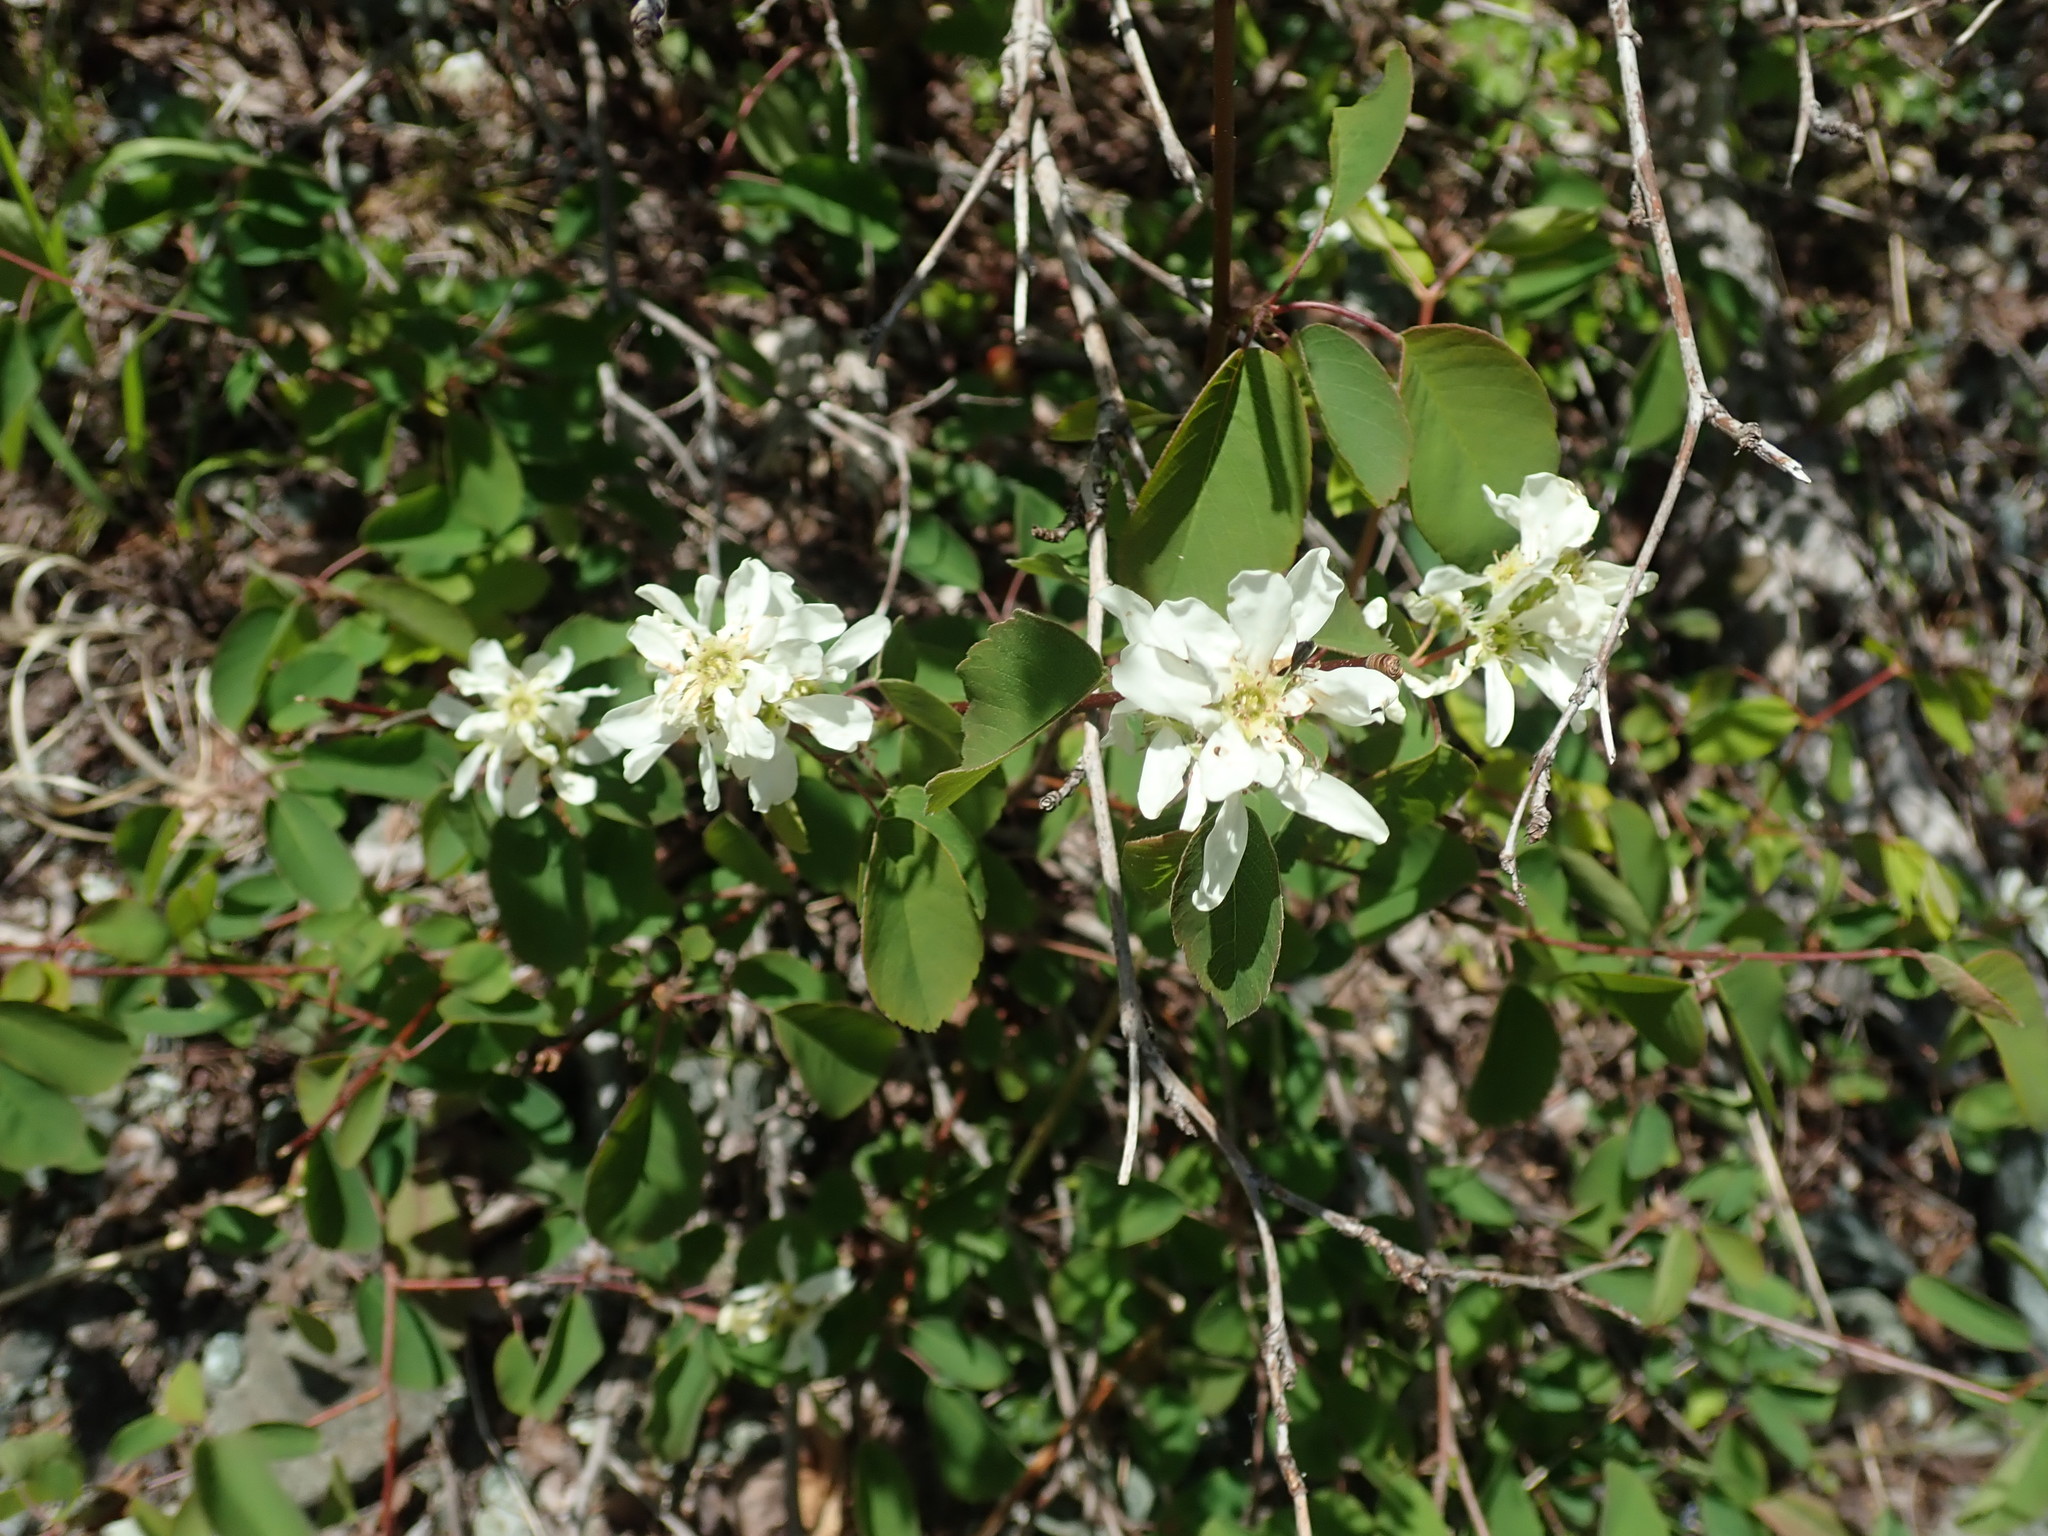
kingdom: Plantae
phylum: Tracheophyta
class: Magnoliopsida
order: Rosales
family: Rosaceae
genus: Amelanchier
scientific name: Amelanchier alnifolia
